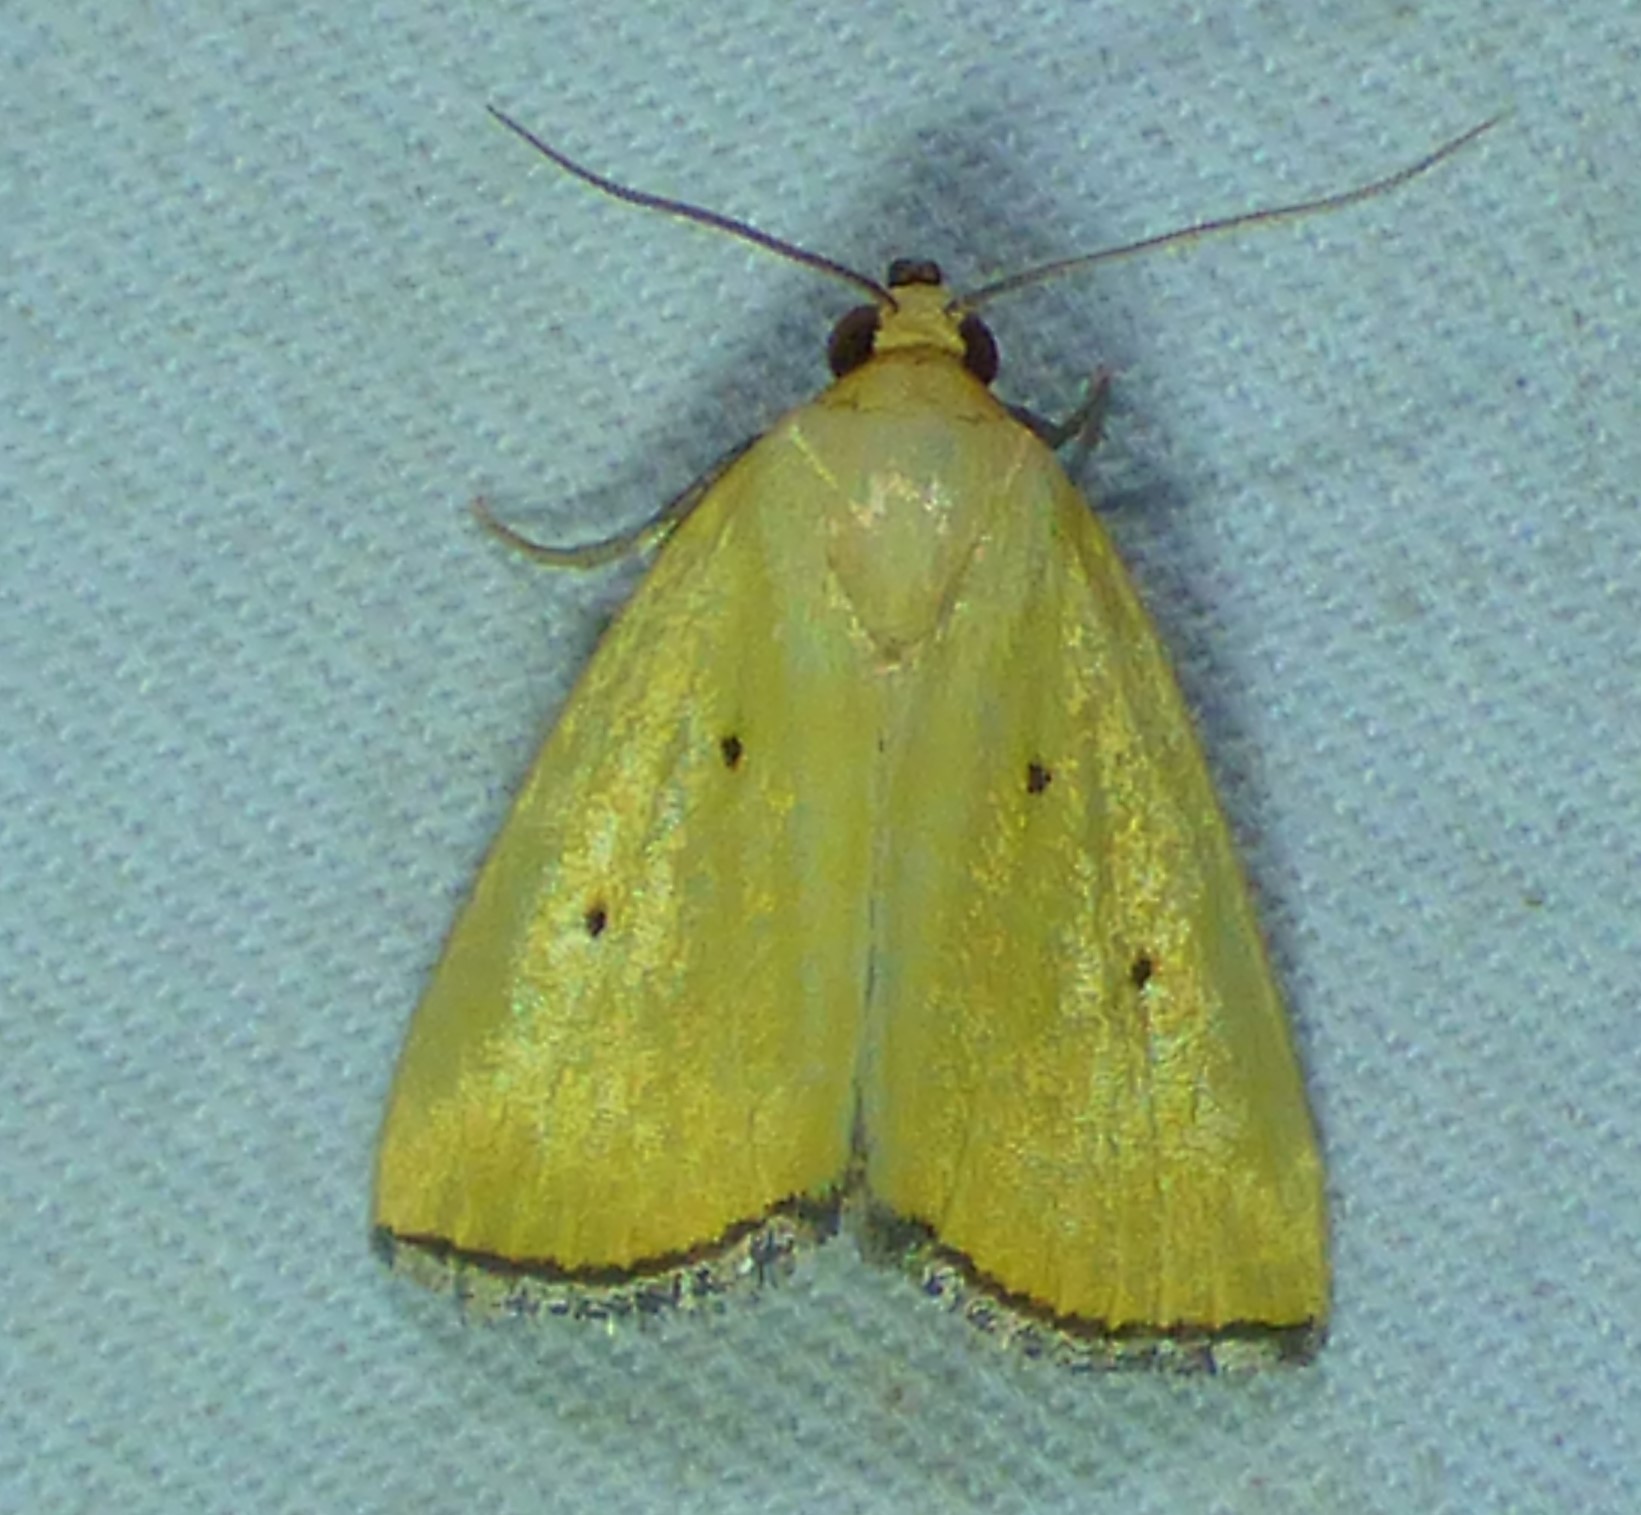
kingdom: Animalia
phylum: Arthropoda
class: Insecta
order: Lepidoptera
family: Noctuidae
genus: Marimatha
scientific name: Marimatha nigrofimbria
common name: Black-bordered lemon moth
